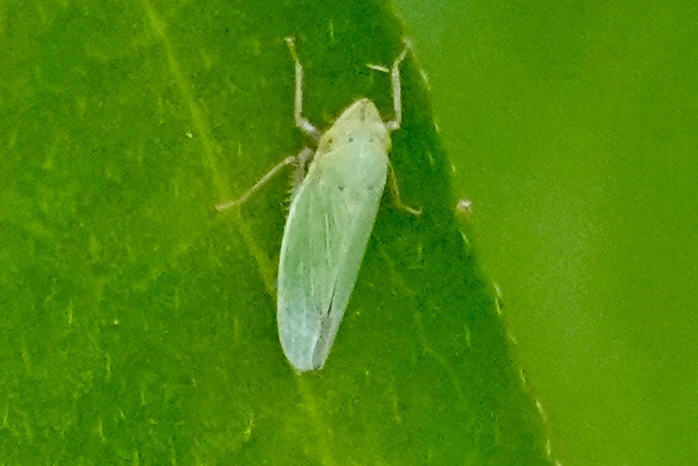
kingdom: Animalia
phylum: Arthropoda
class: Insecta
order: Hemiptera
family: Cicadellidae
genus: Draeculacephala
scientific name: Draeculacephala balli
